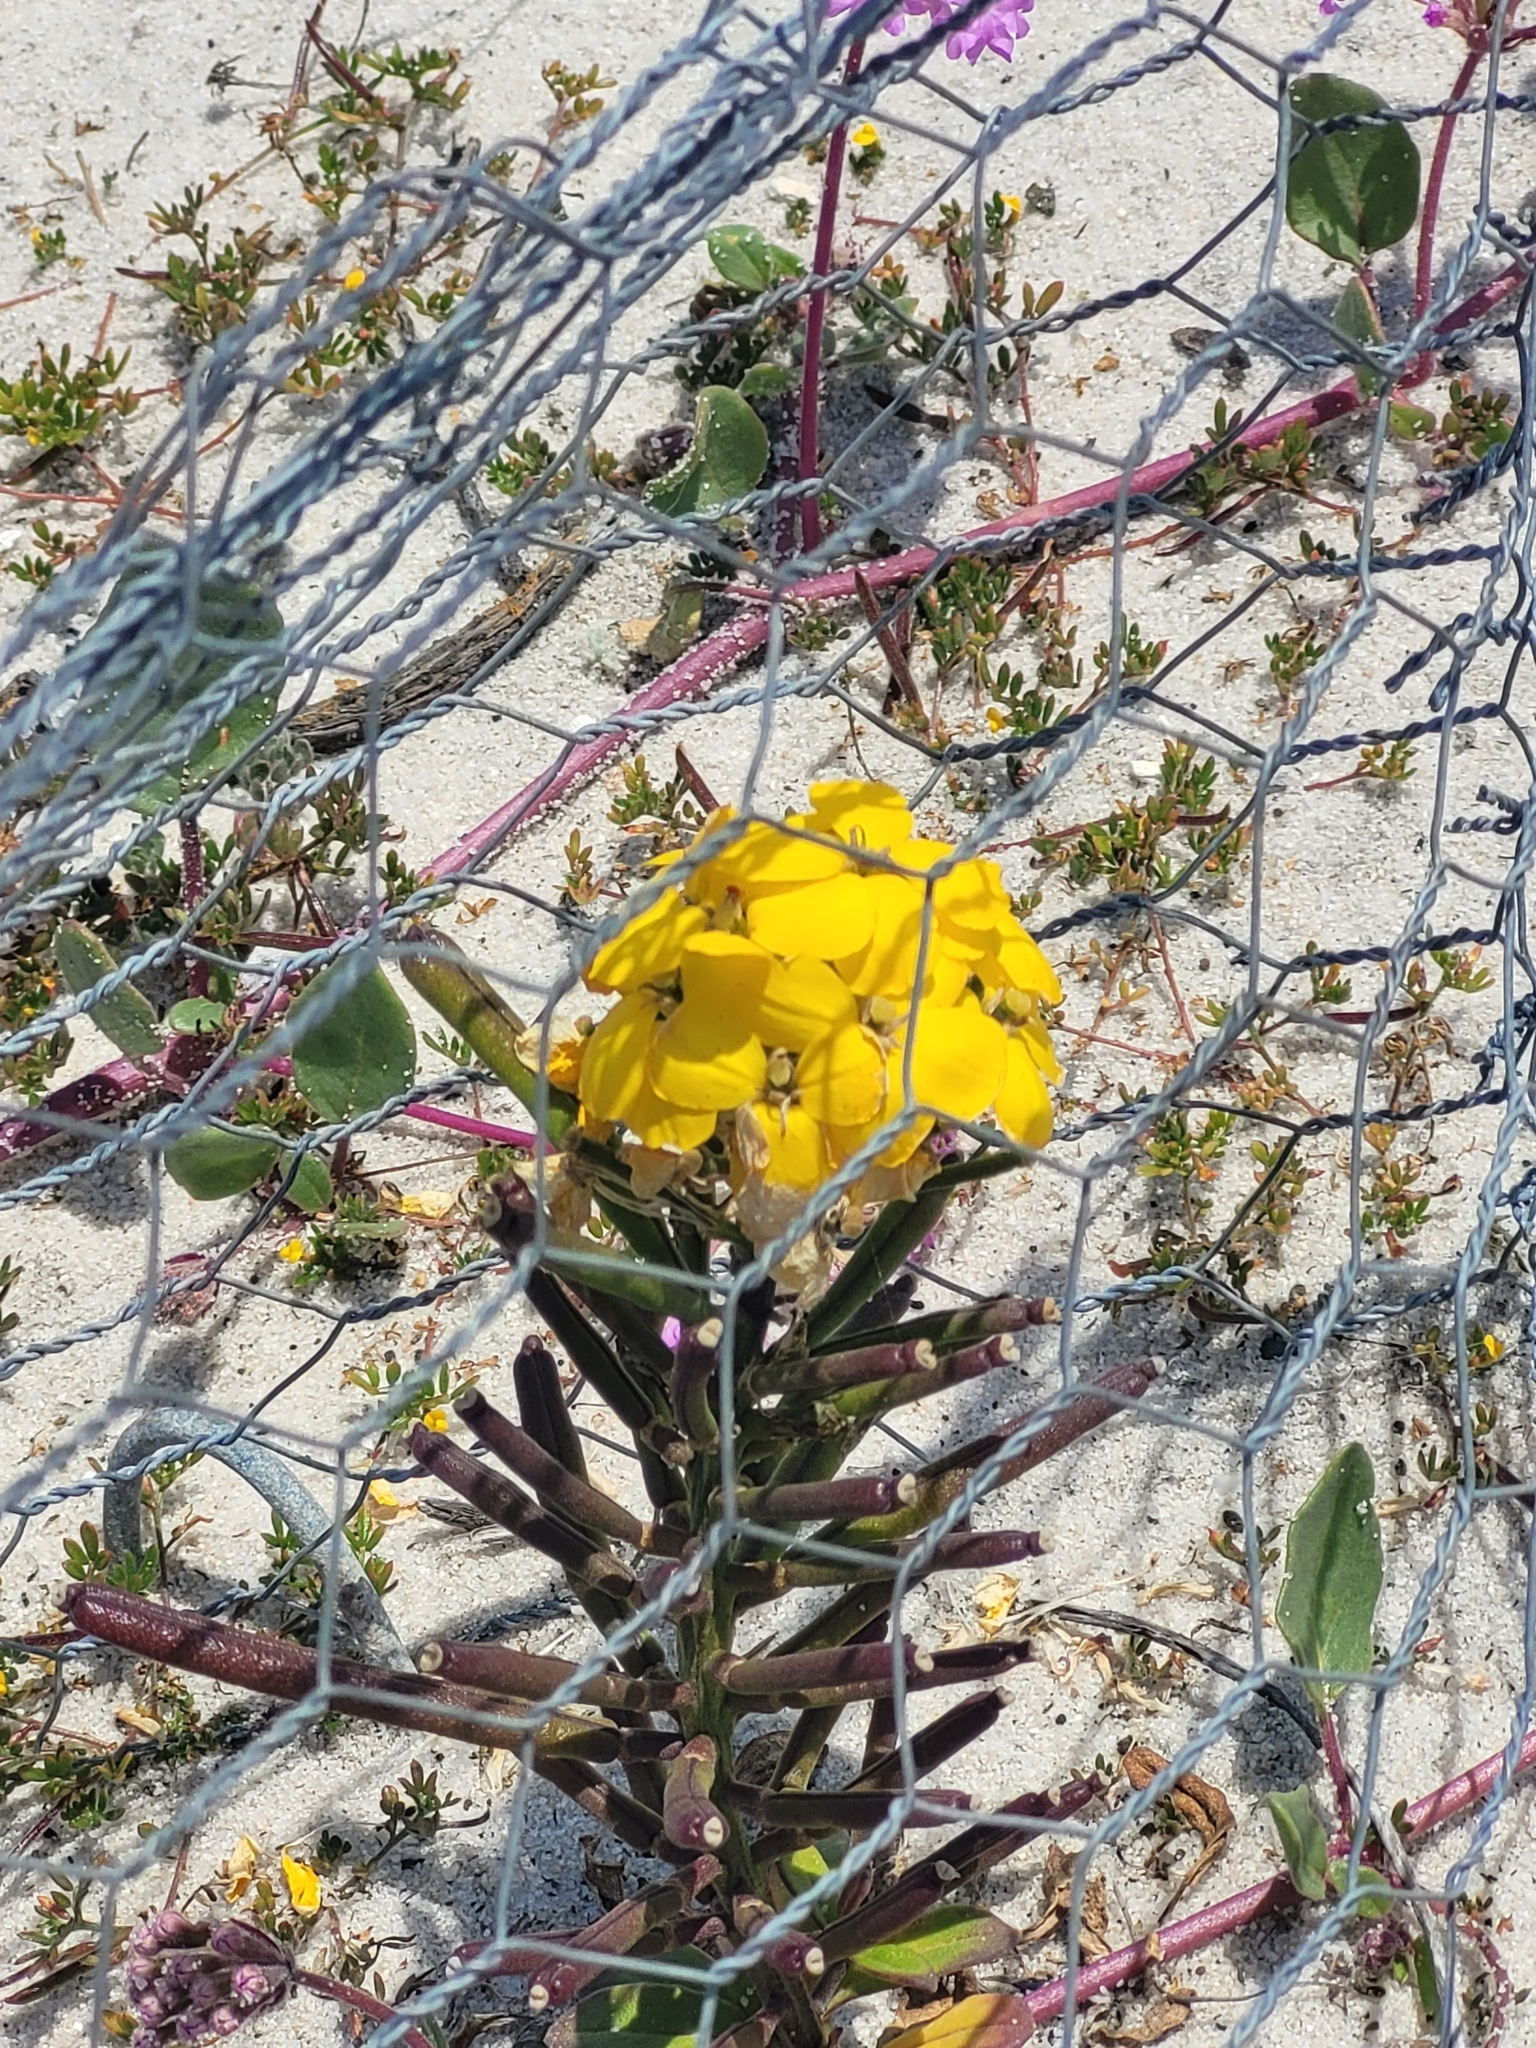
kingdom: Plantae
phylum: Tracheophyta
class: Magnoliopsida
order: Brassicales
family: Brassicaceae
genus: Erysimum
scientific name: Erysimum menziesii
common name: Menzies's wallflower
